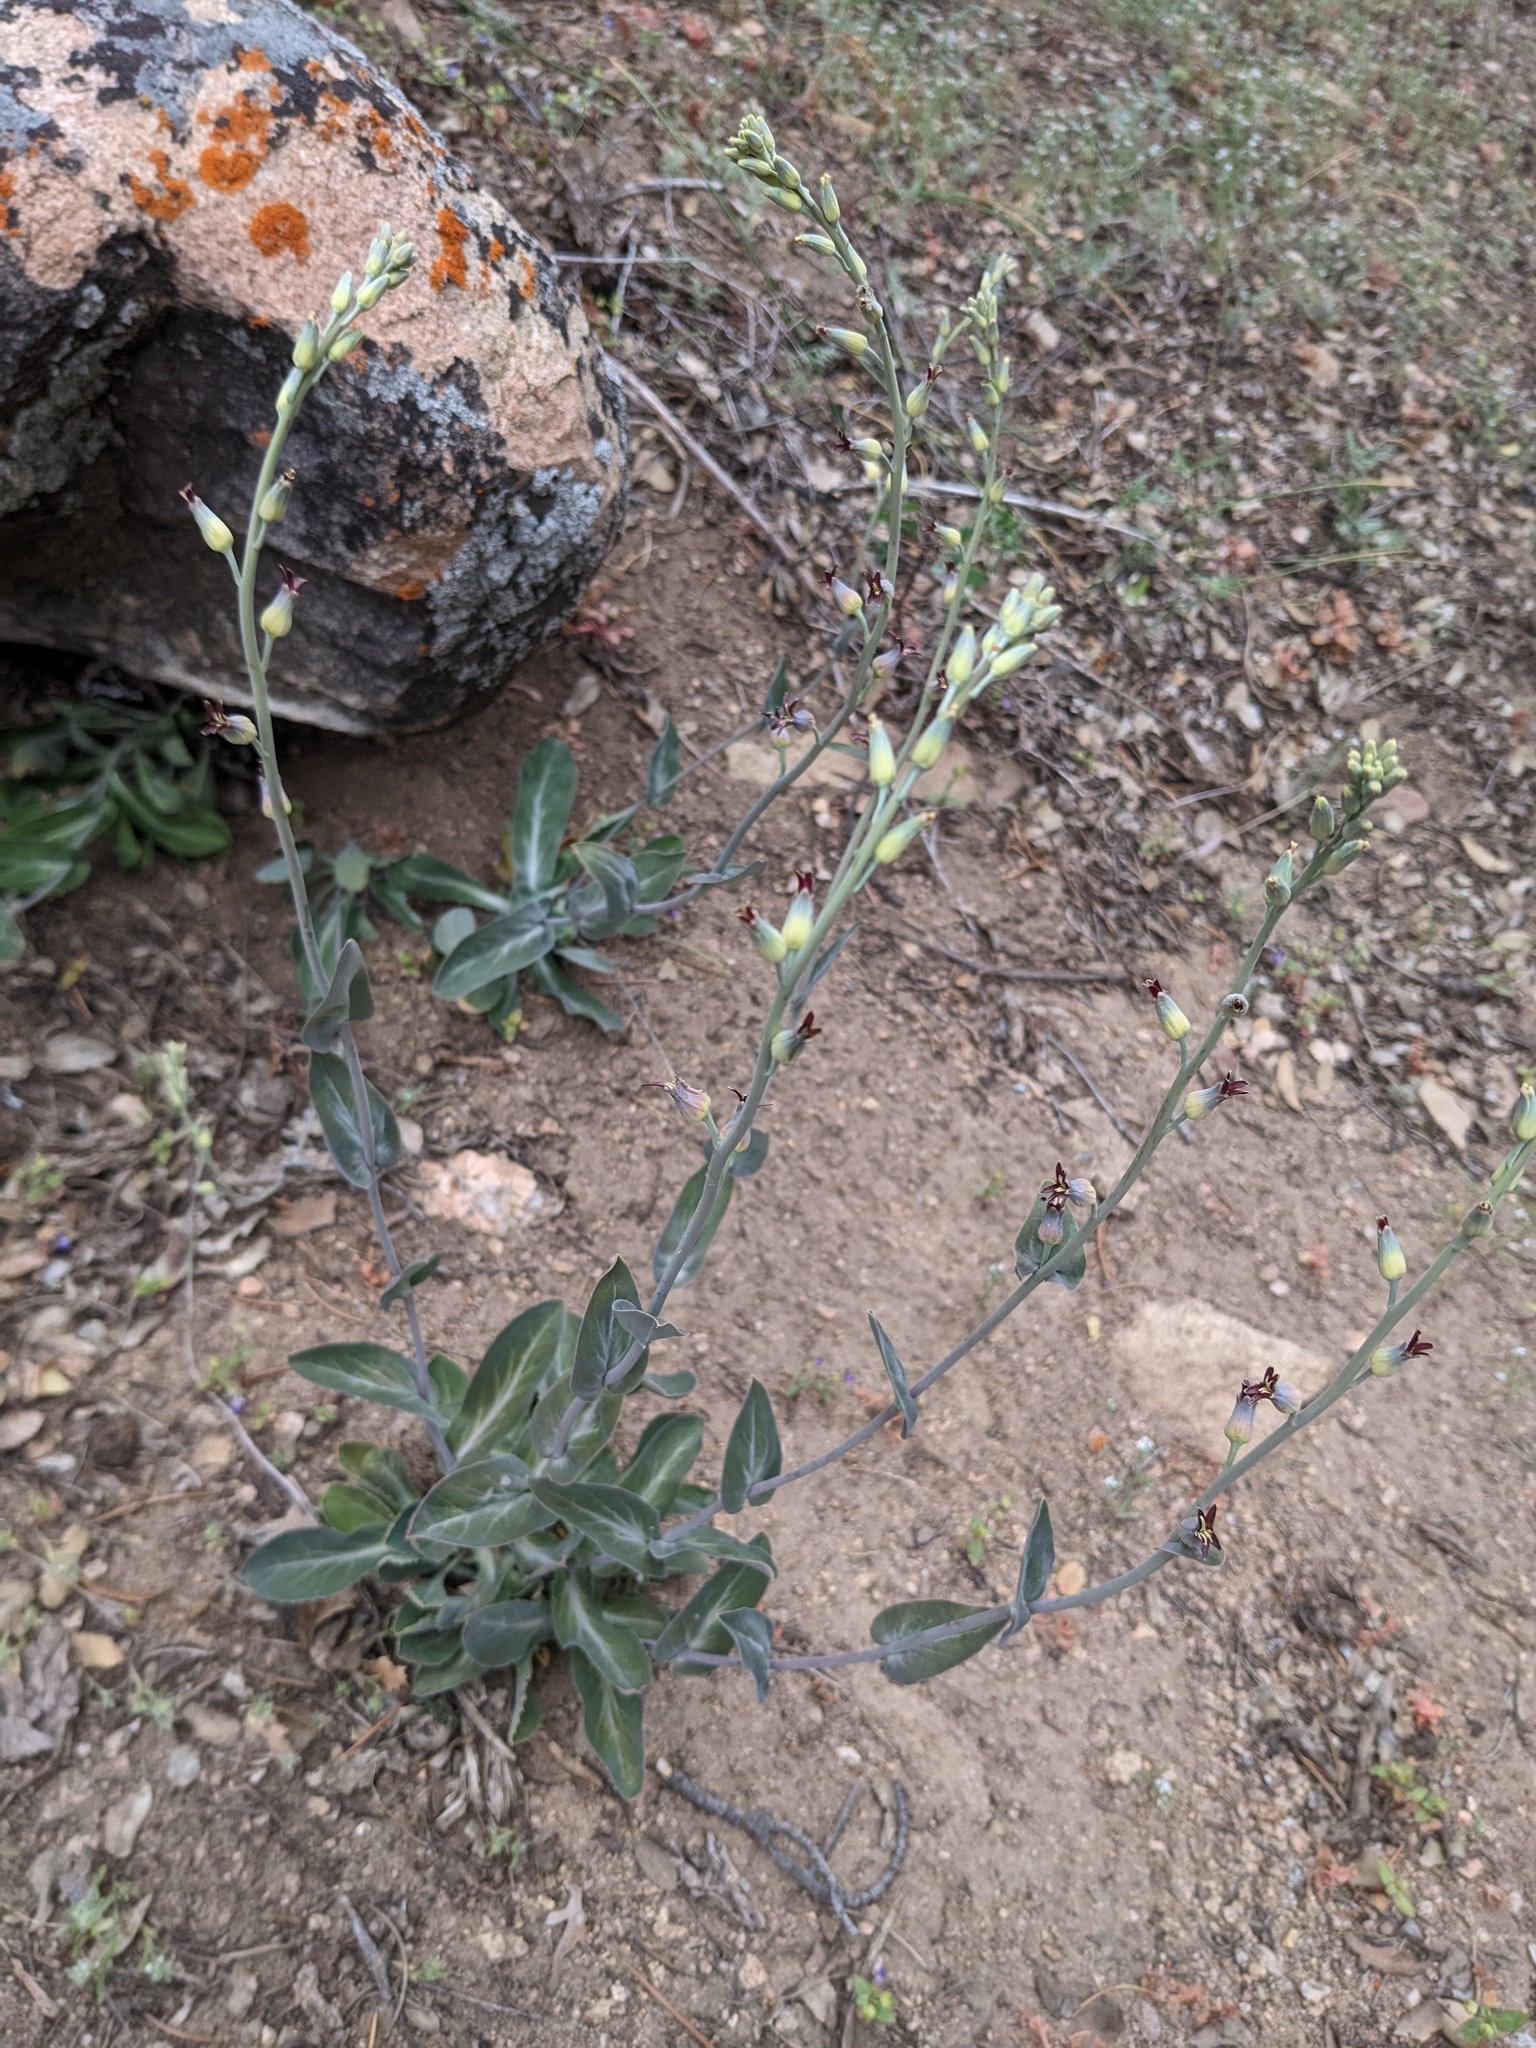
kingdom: Plantae
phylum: Tracheophyta
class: Magnoliopsida
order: Brassicales
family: Brassicaceae
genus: Streptanthus
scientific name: Streptanthus cordatus
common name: Heart-leaf jewel-flower
